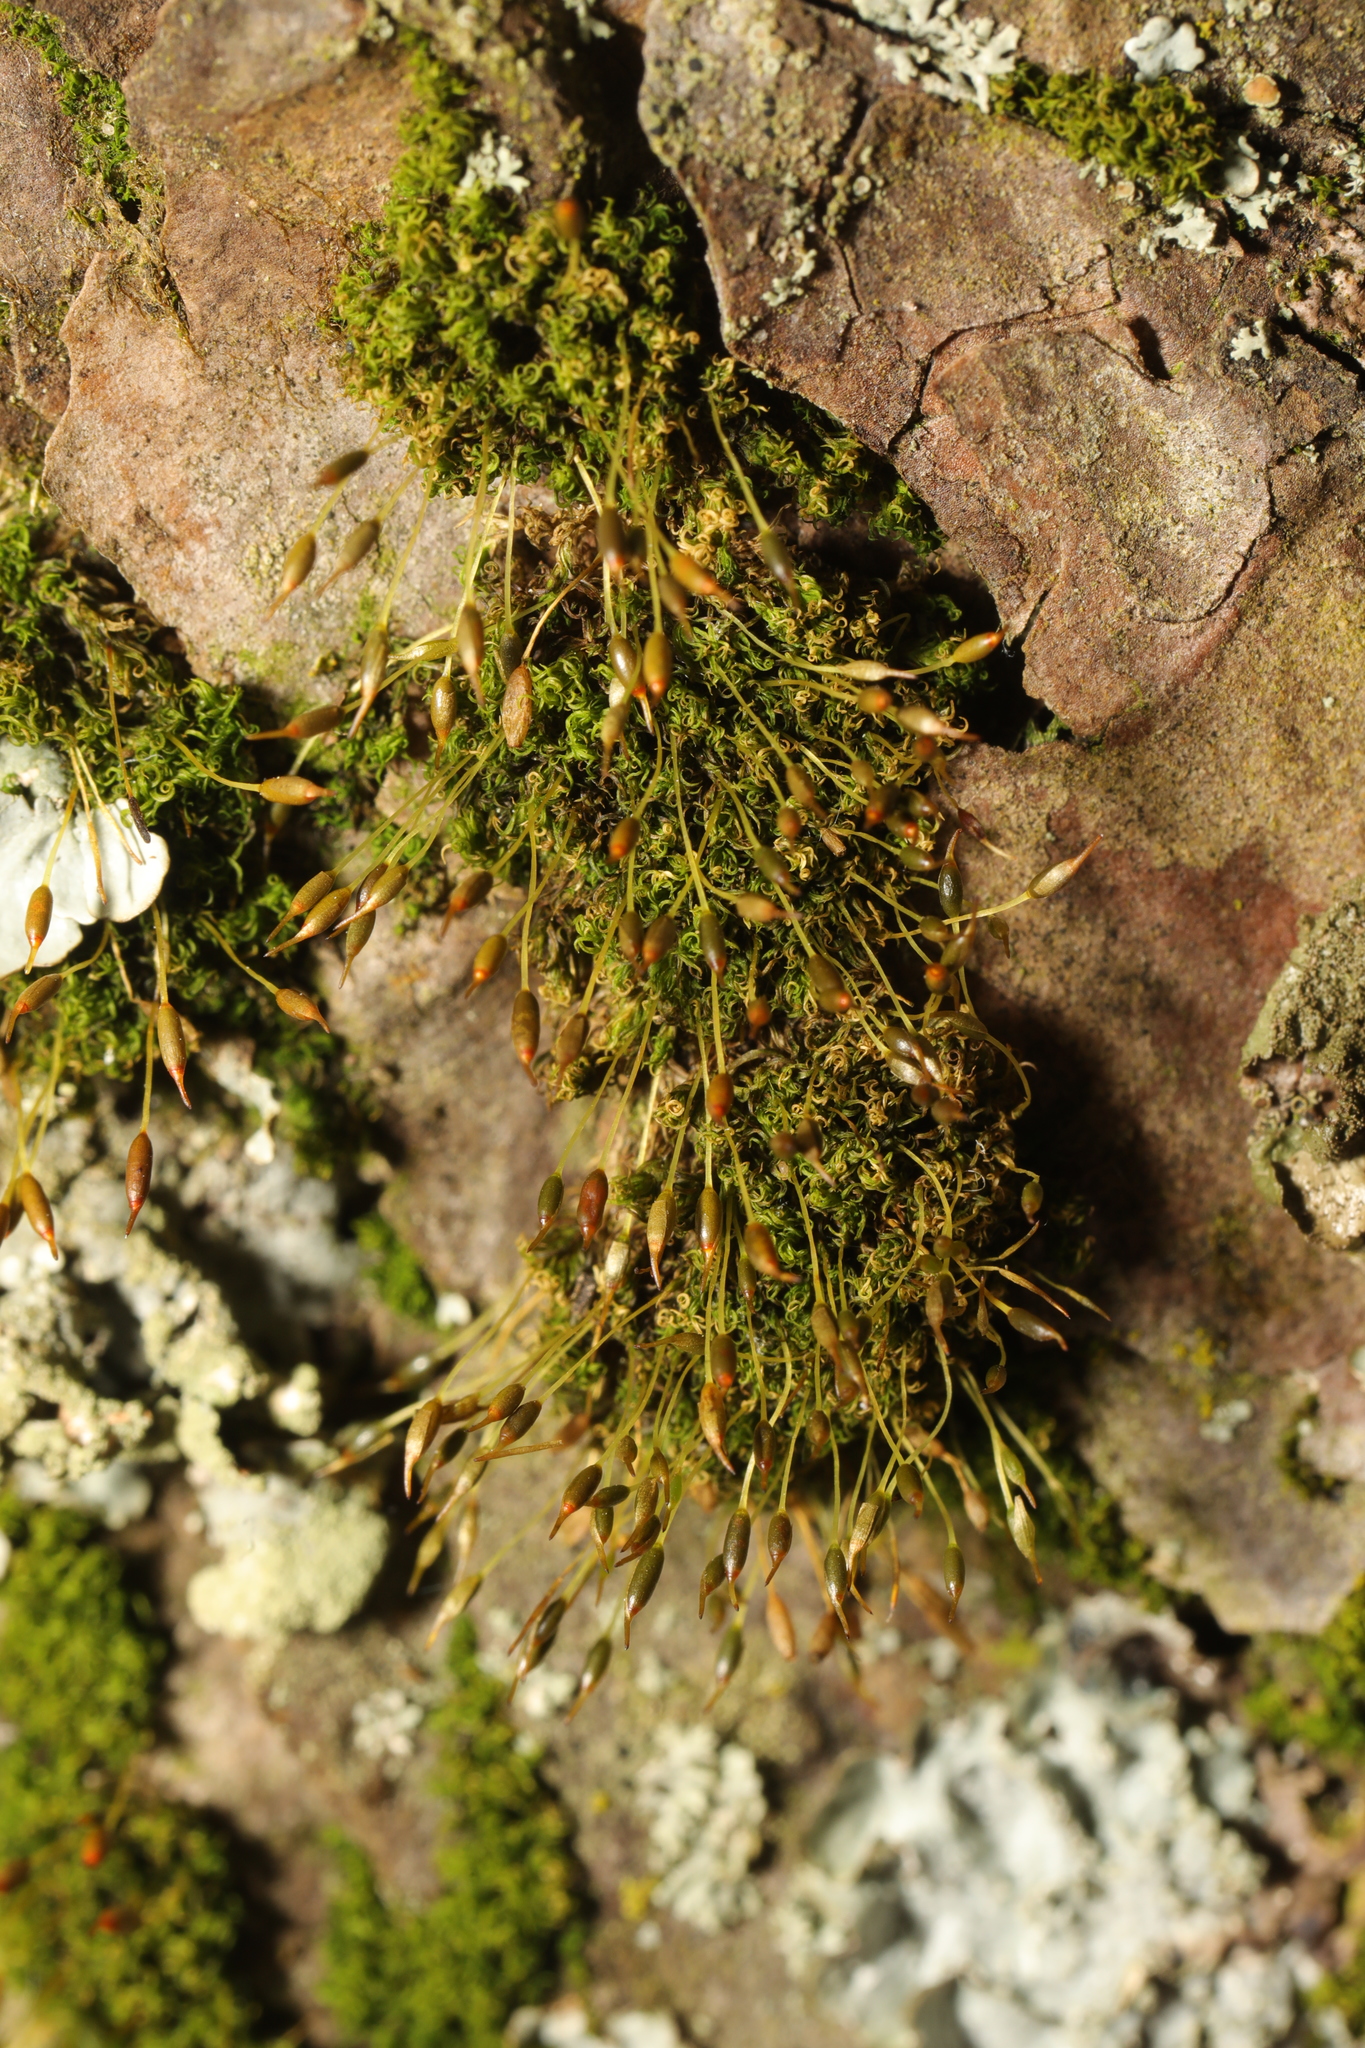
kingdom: Plantae
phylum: Bryophyta
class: Bryopsida
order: Dicranales
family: Rhabdoweisiaceae
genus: Dicranoweisia
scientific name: Dicranoweisia cirrata
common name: Common pincushion
